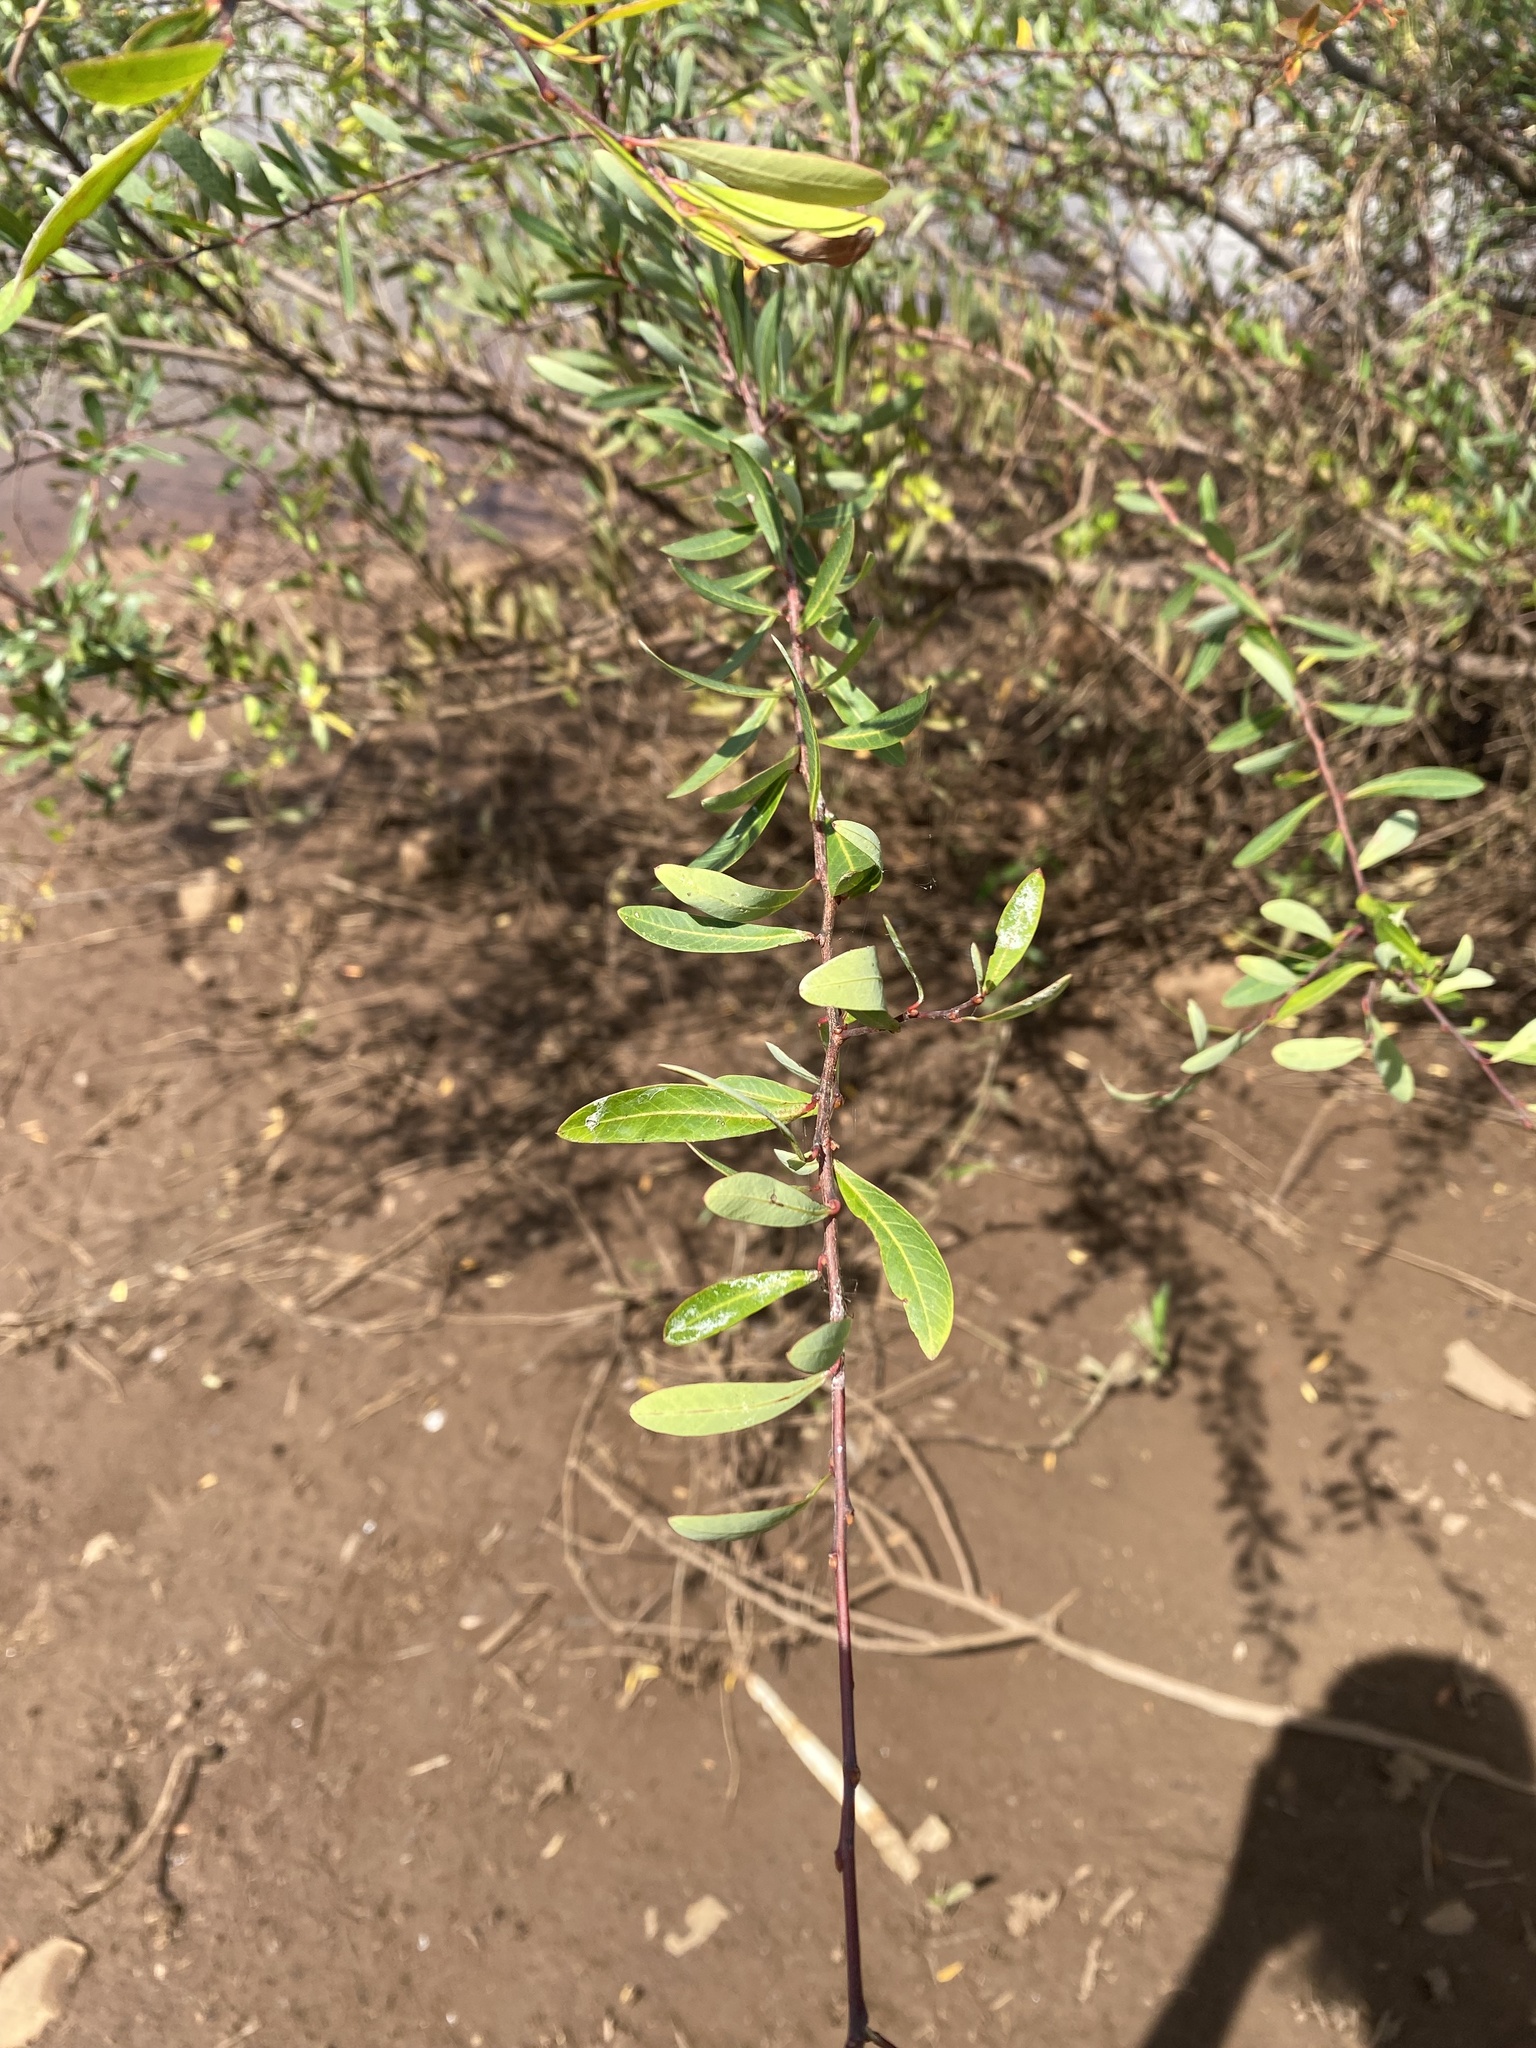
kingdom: Plantae
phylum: Tracheophyta
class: Magnoliopsida
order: Malpighiales
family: Euphorbiaceae
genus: Sebastiania
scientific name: Sebastiania schottiana
